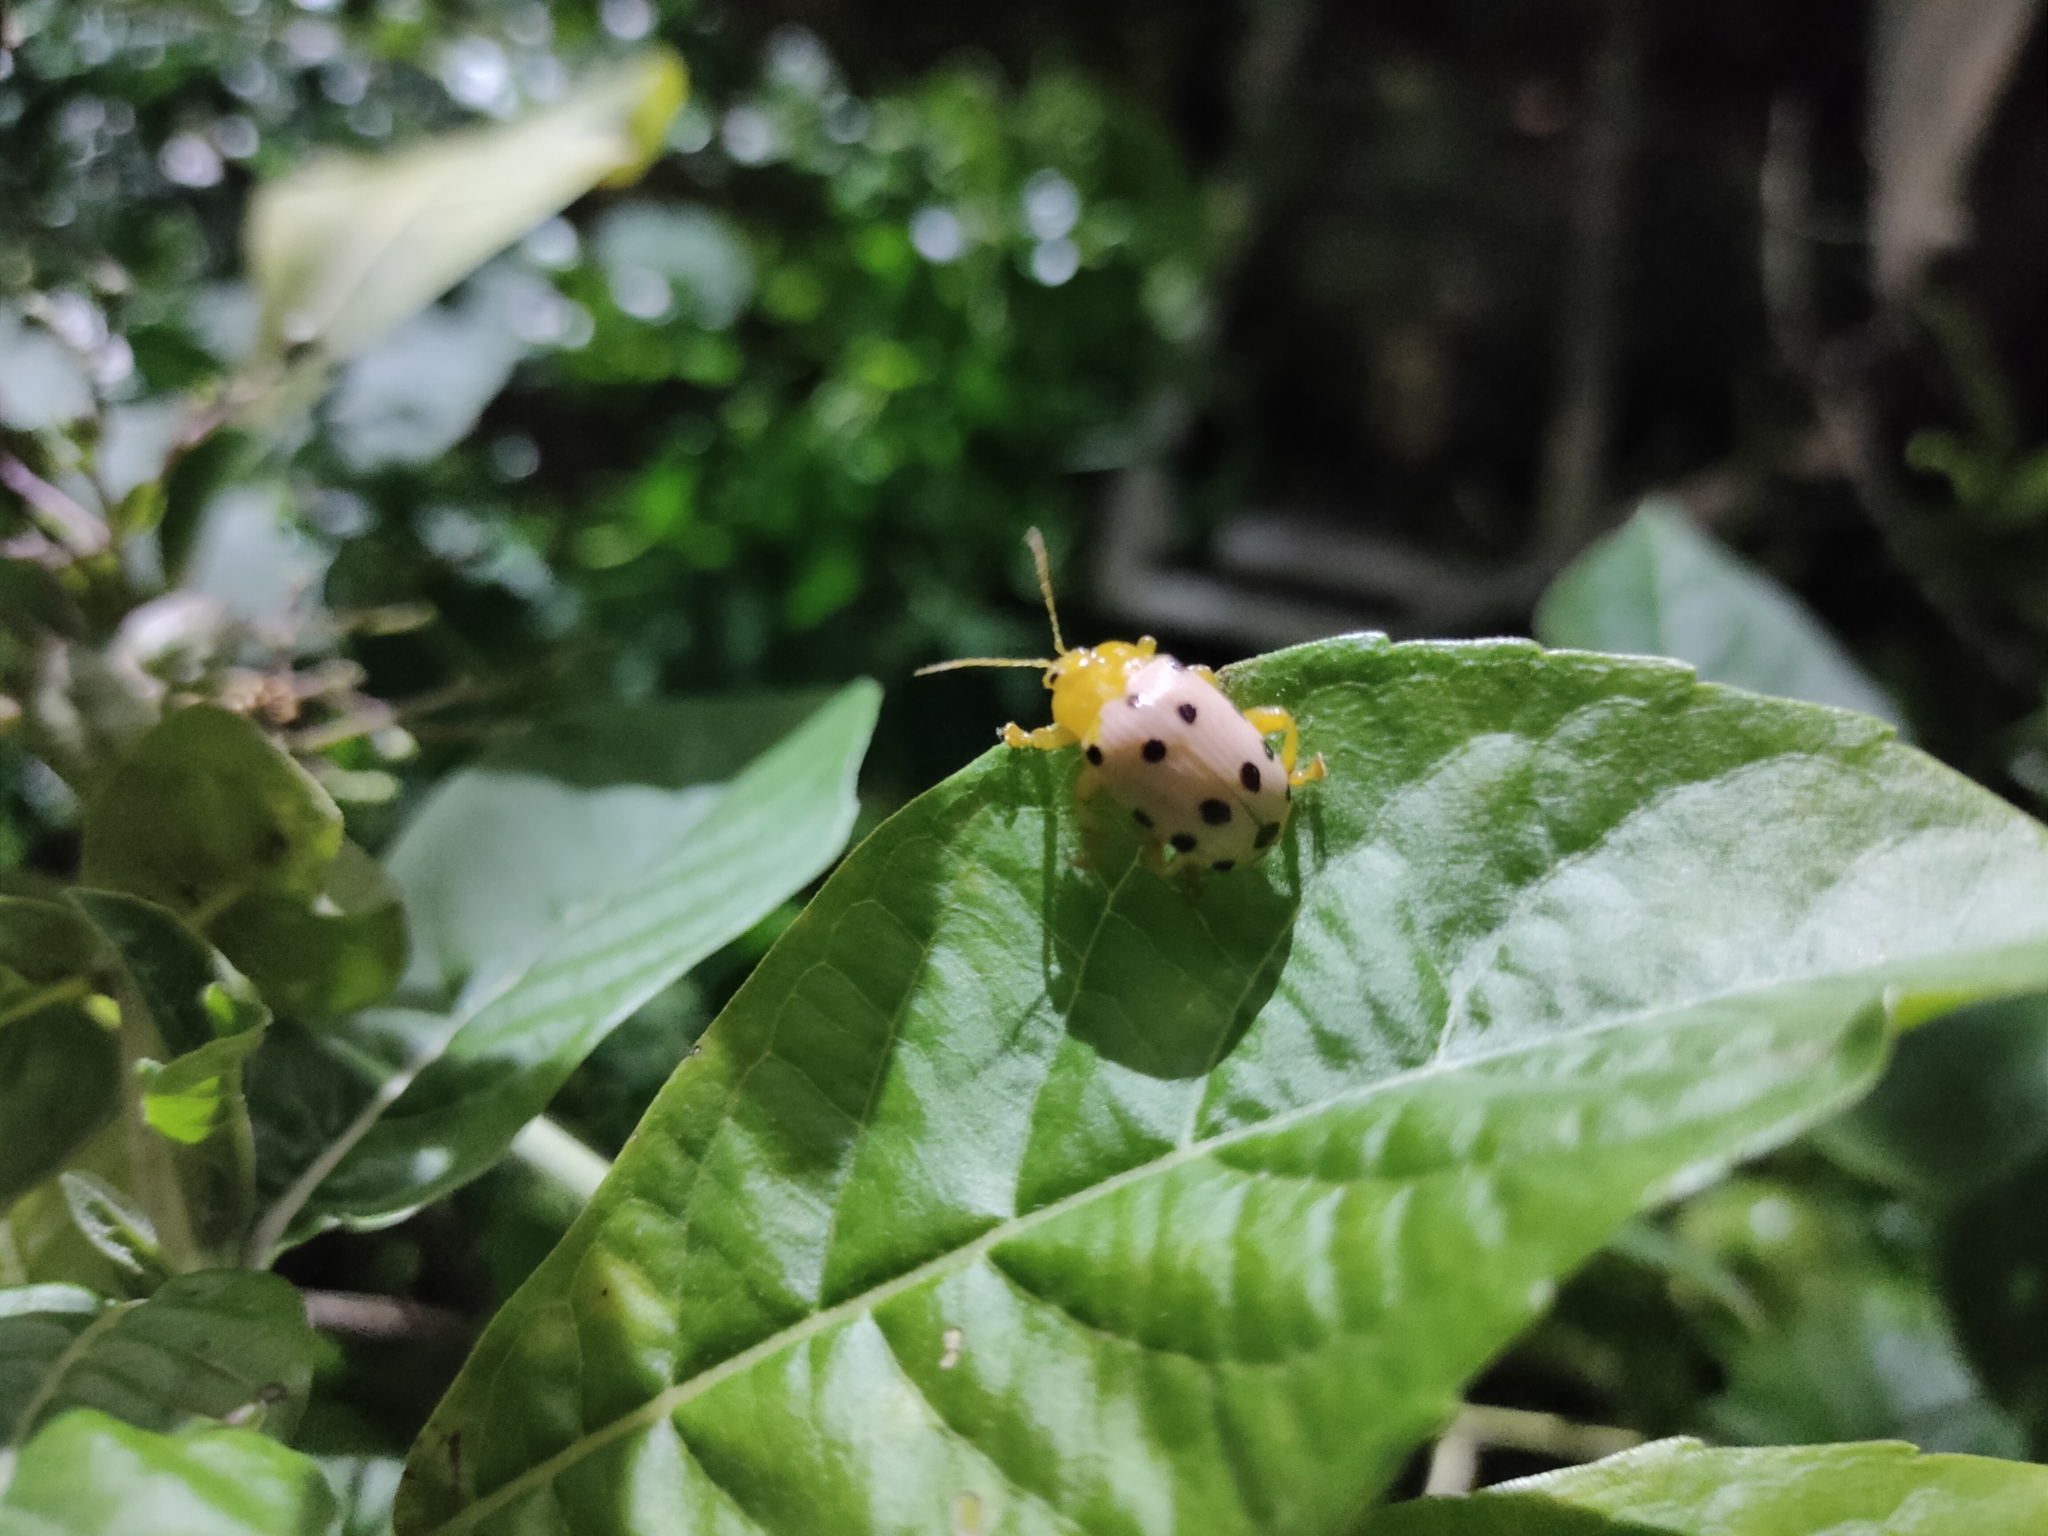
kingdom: Animalia
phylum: Arthropoda
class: Insecta
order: Coleoptera
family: Chrysomelidae
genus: Podontia
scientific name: Podontia
